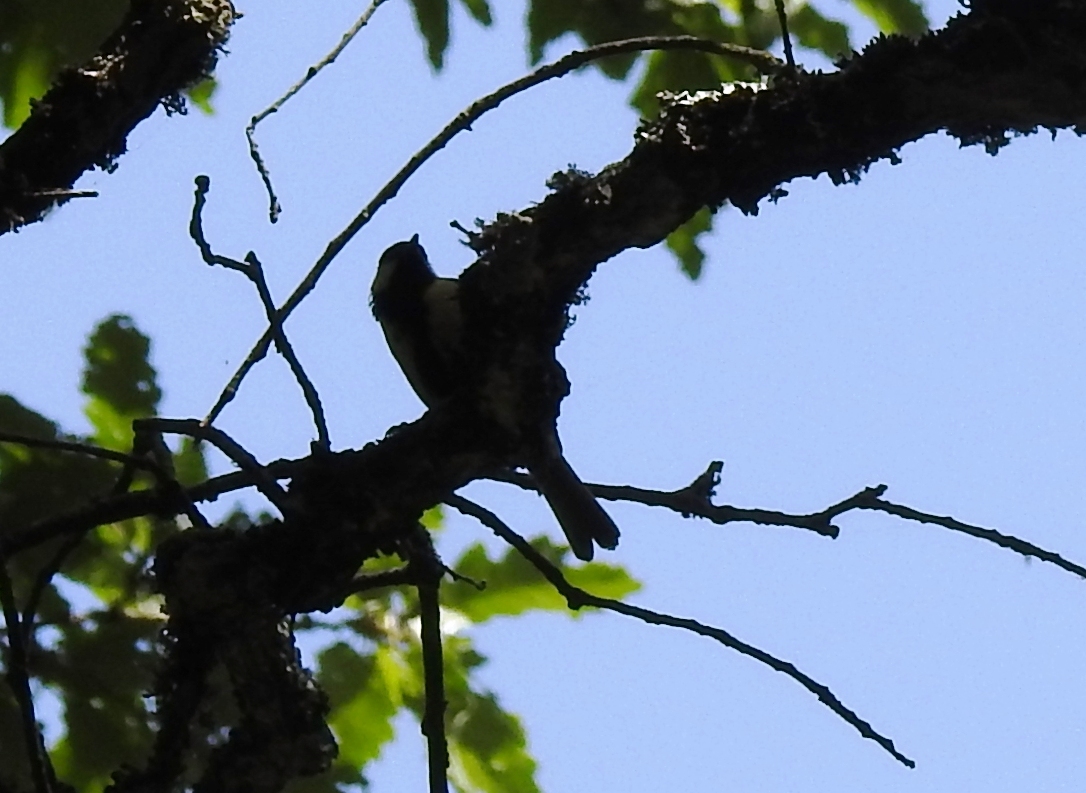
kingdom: Animalia
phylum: Chordata
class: Aves
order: Passeriformes
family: Paridae
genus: Parus
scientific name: Parus major
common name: Great tit
